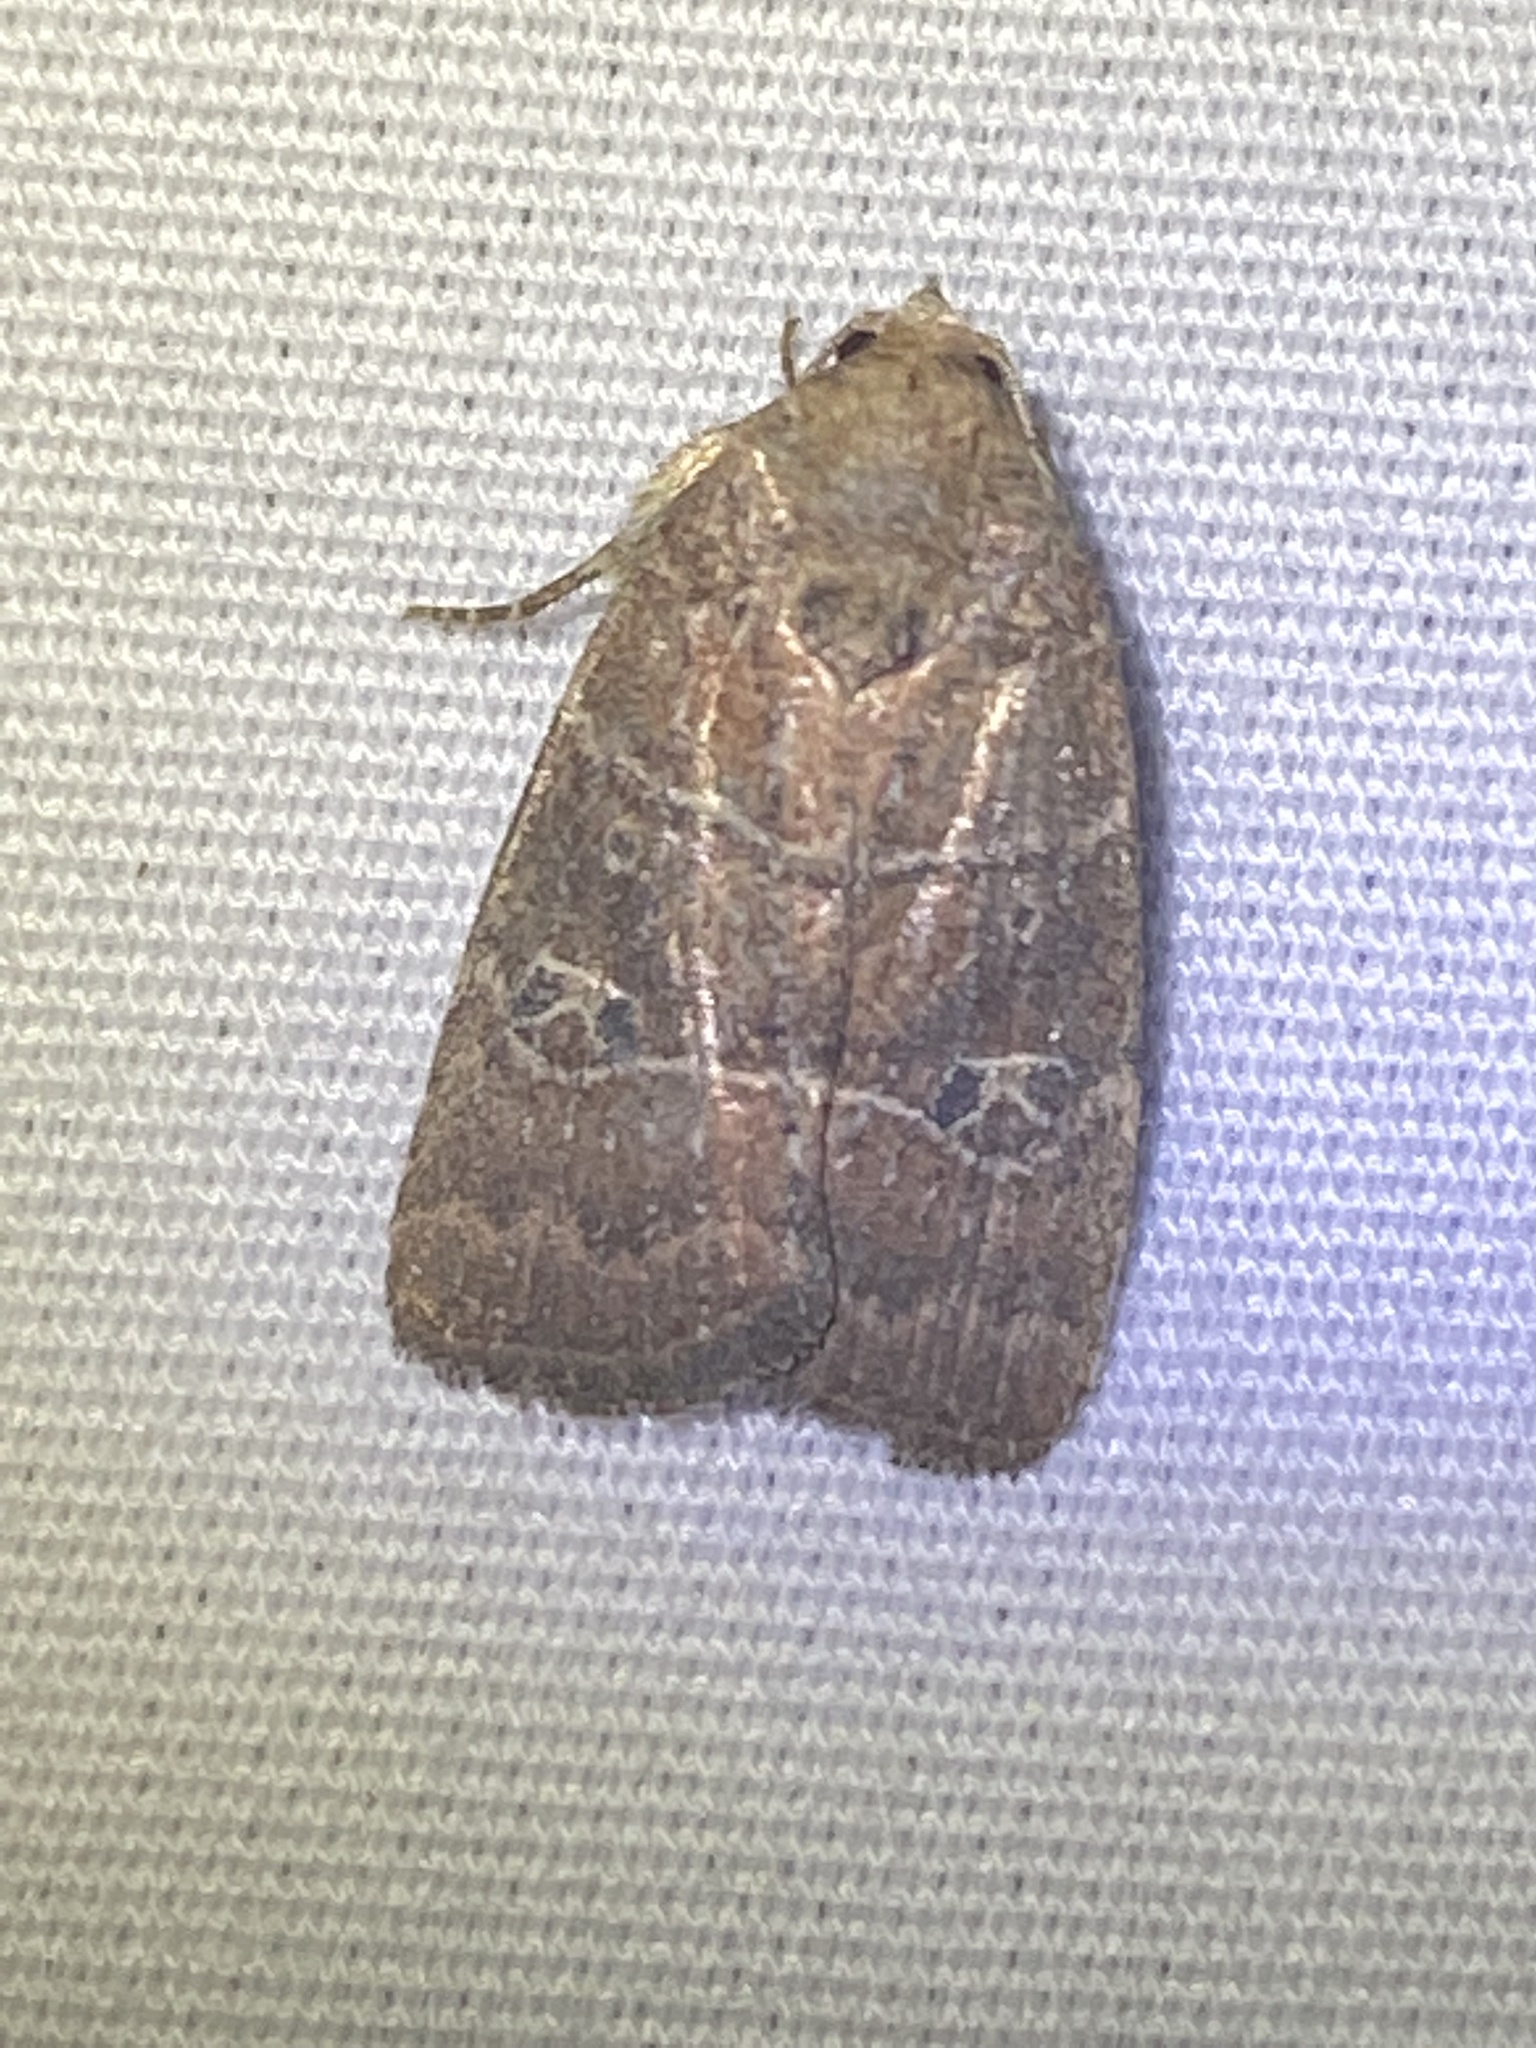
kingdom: Animalia
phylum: Arthropoda
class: Insecta
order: Lepidoptera
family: Noctuidae
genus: Elaphria
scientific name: Elaphria grata
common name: Grateful midget moth
